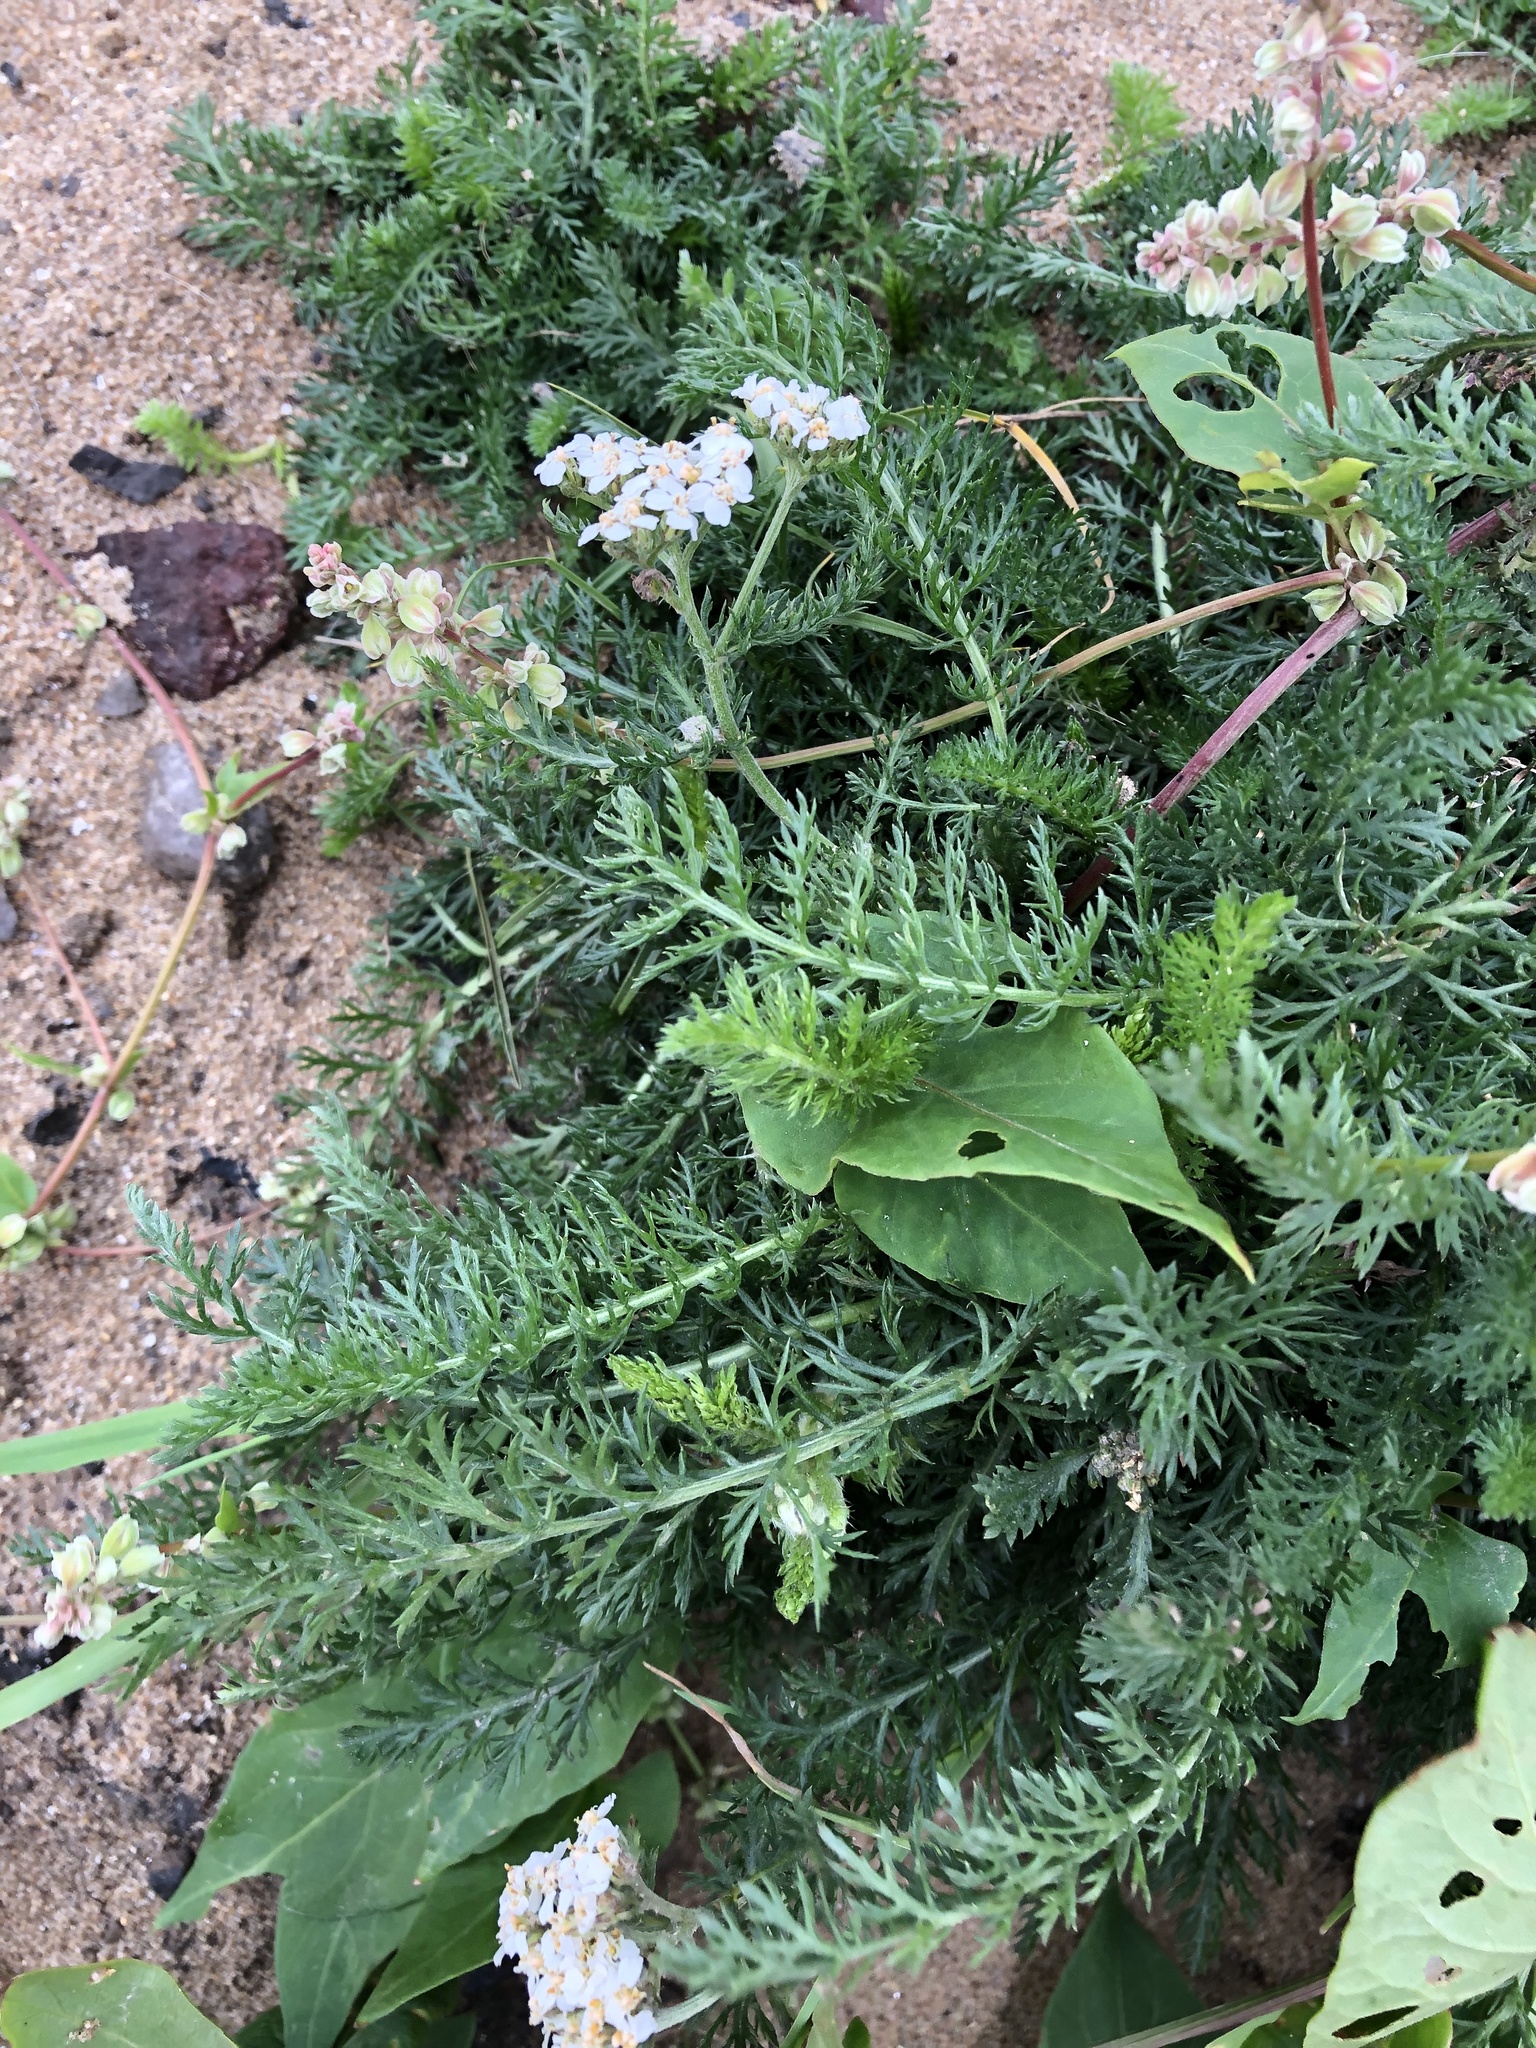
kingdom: Plantae
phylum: Tracheophyta
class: Magnoliopsida
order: Asterales
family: Asteraceae
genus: Achillea
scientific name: Achillea millefolium
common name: Yarrow
